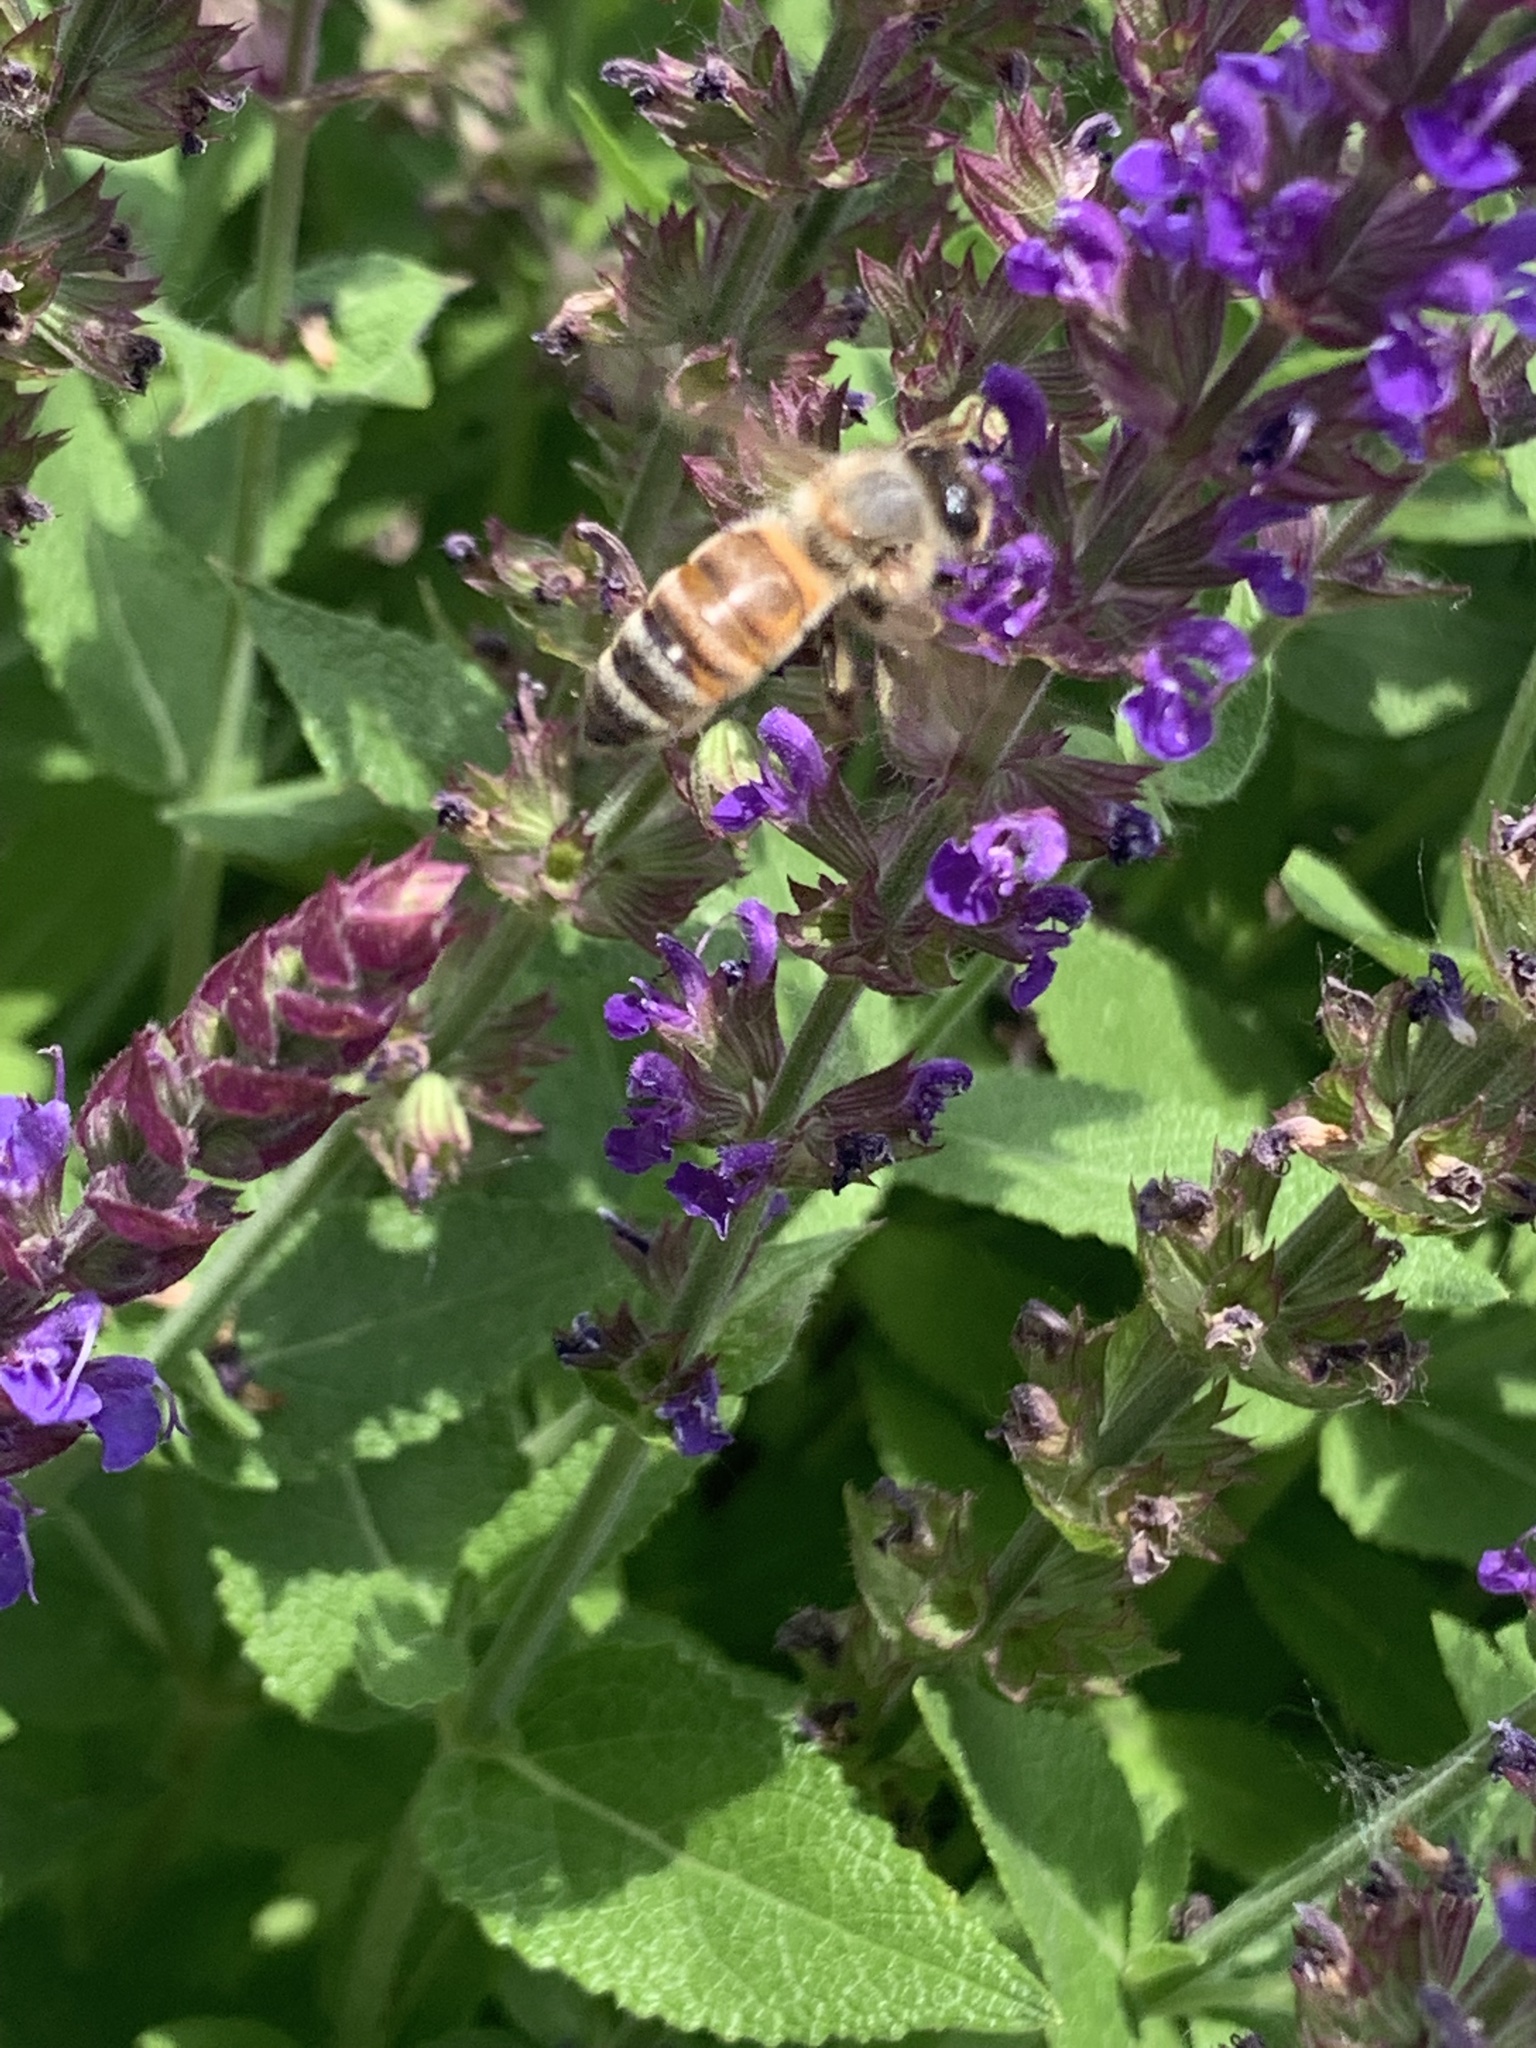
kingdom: Animalia
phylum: Arthropoda
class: Insecta
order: Hymenoptera
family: Apidae
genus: Apis
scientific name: Apis mellifera
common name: Honey bee
